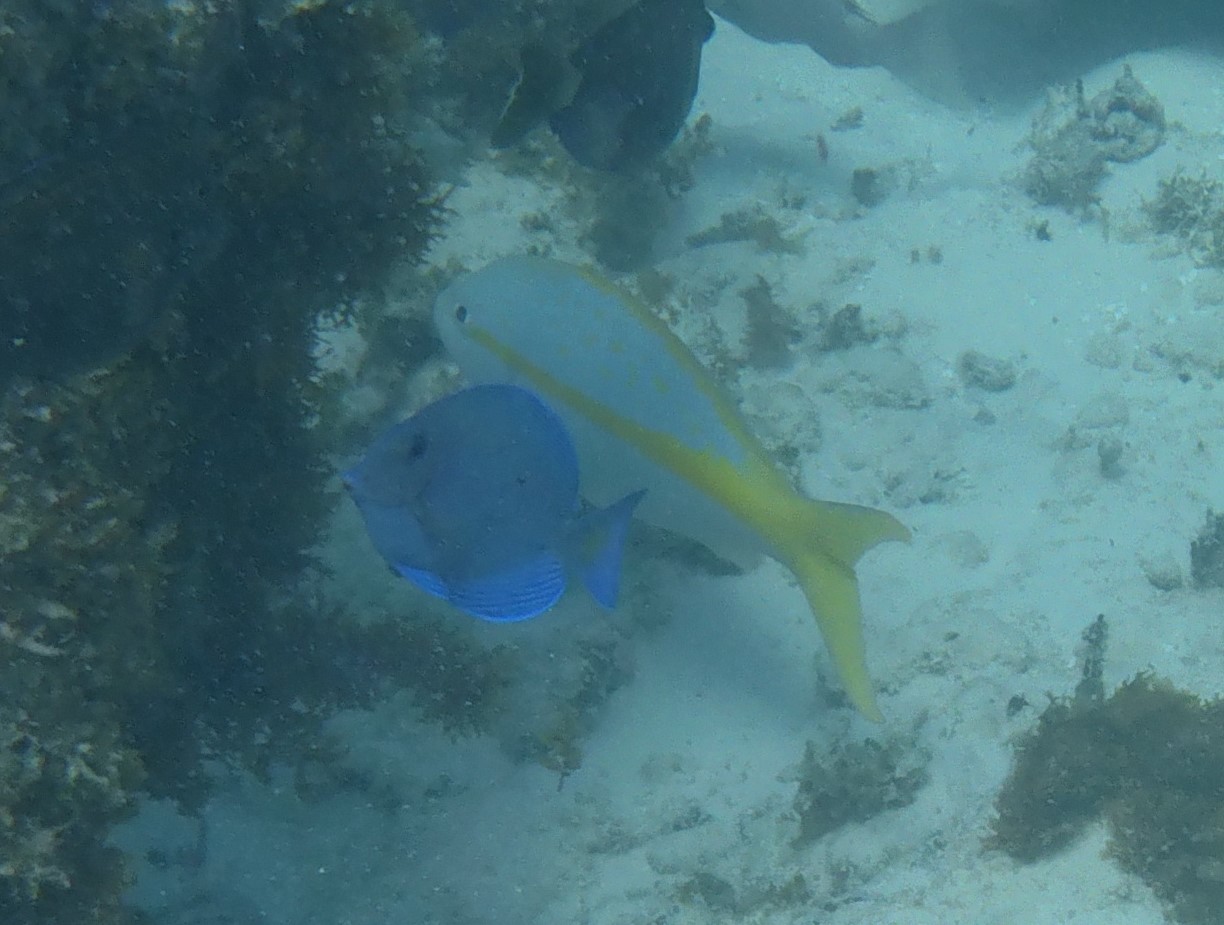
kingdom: Animalia
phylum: Chordata
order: Perciformes
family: Lutjanidae
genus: Ocyurus
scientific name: Ocyurus chrysurus
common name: Yellowtail snapper
